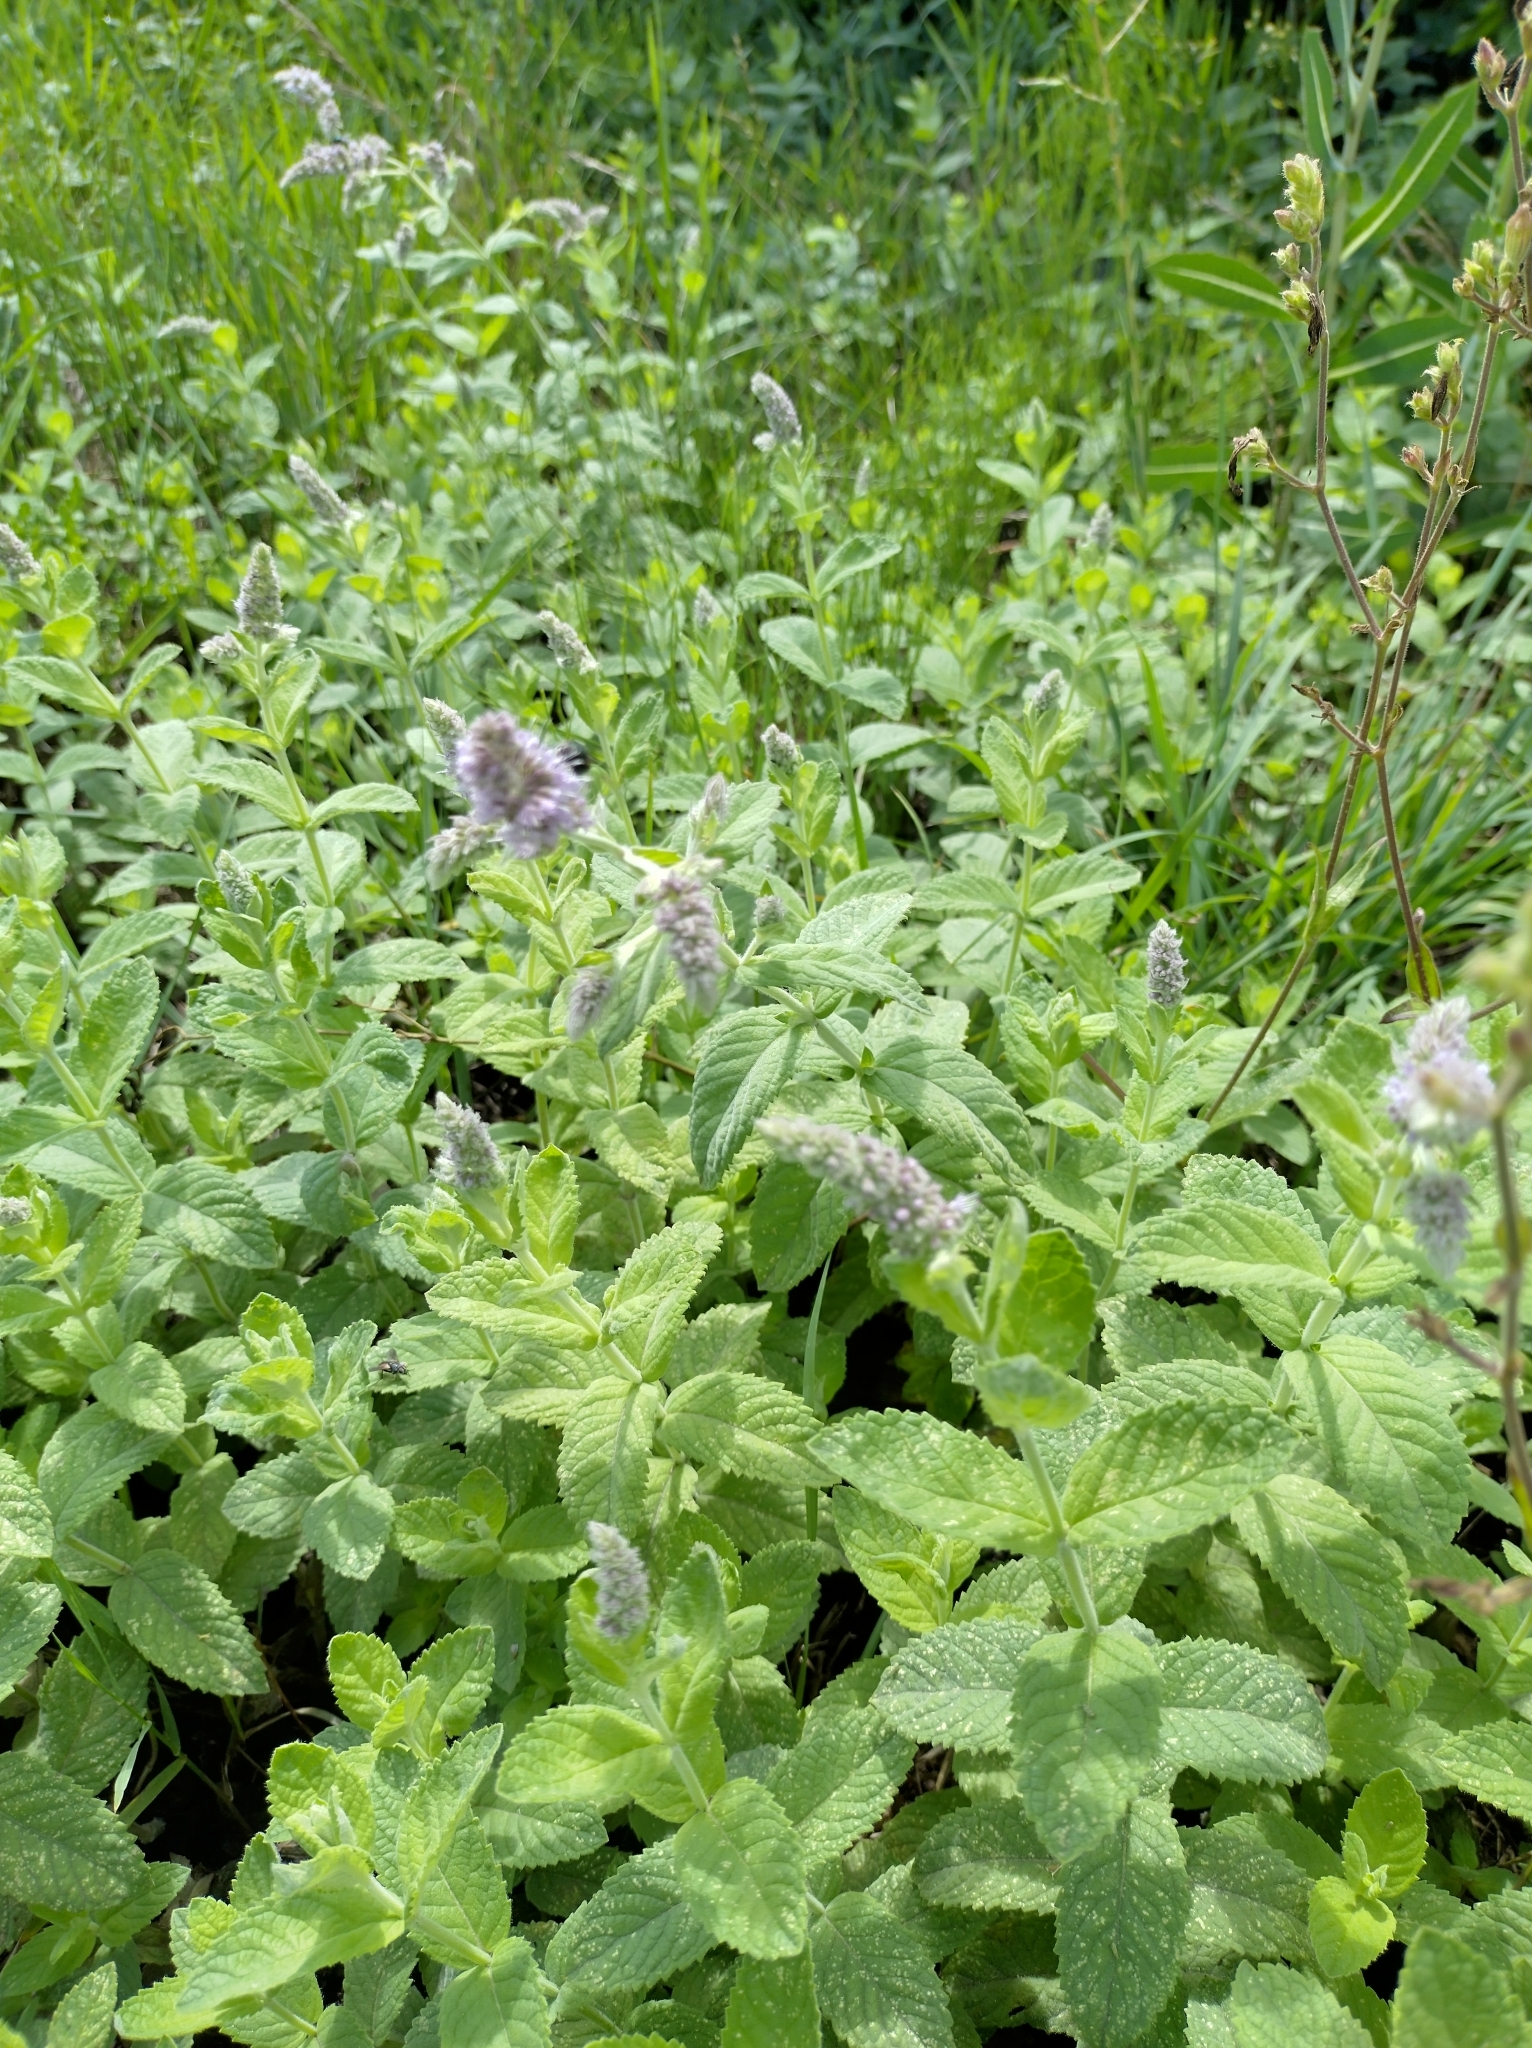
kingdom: Plantae
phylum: Tracheophyta
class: Magnoliopsida
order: Lamiales
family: Lamiaceae
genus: Mentha
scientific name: Mentha spicata
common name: Spearmint
